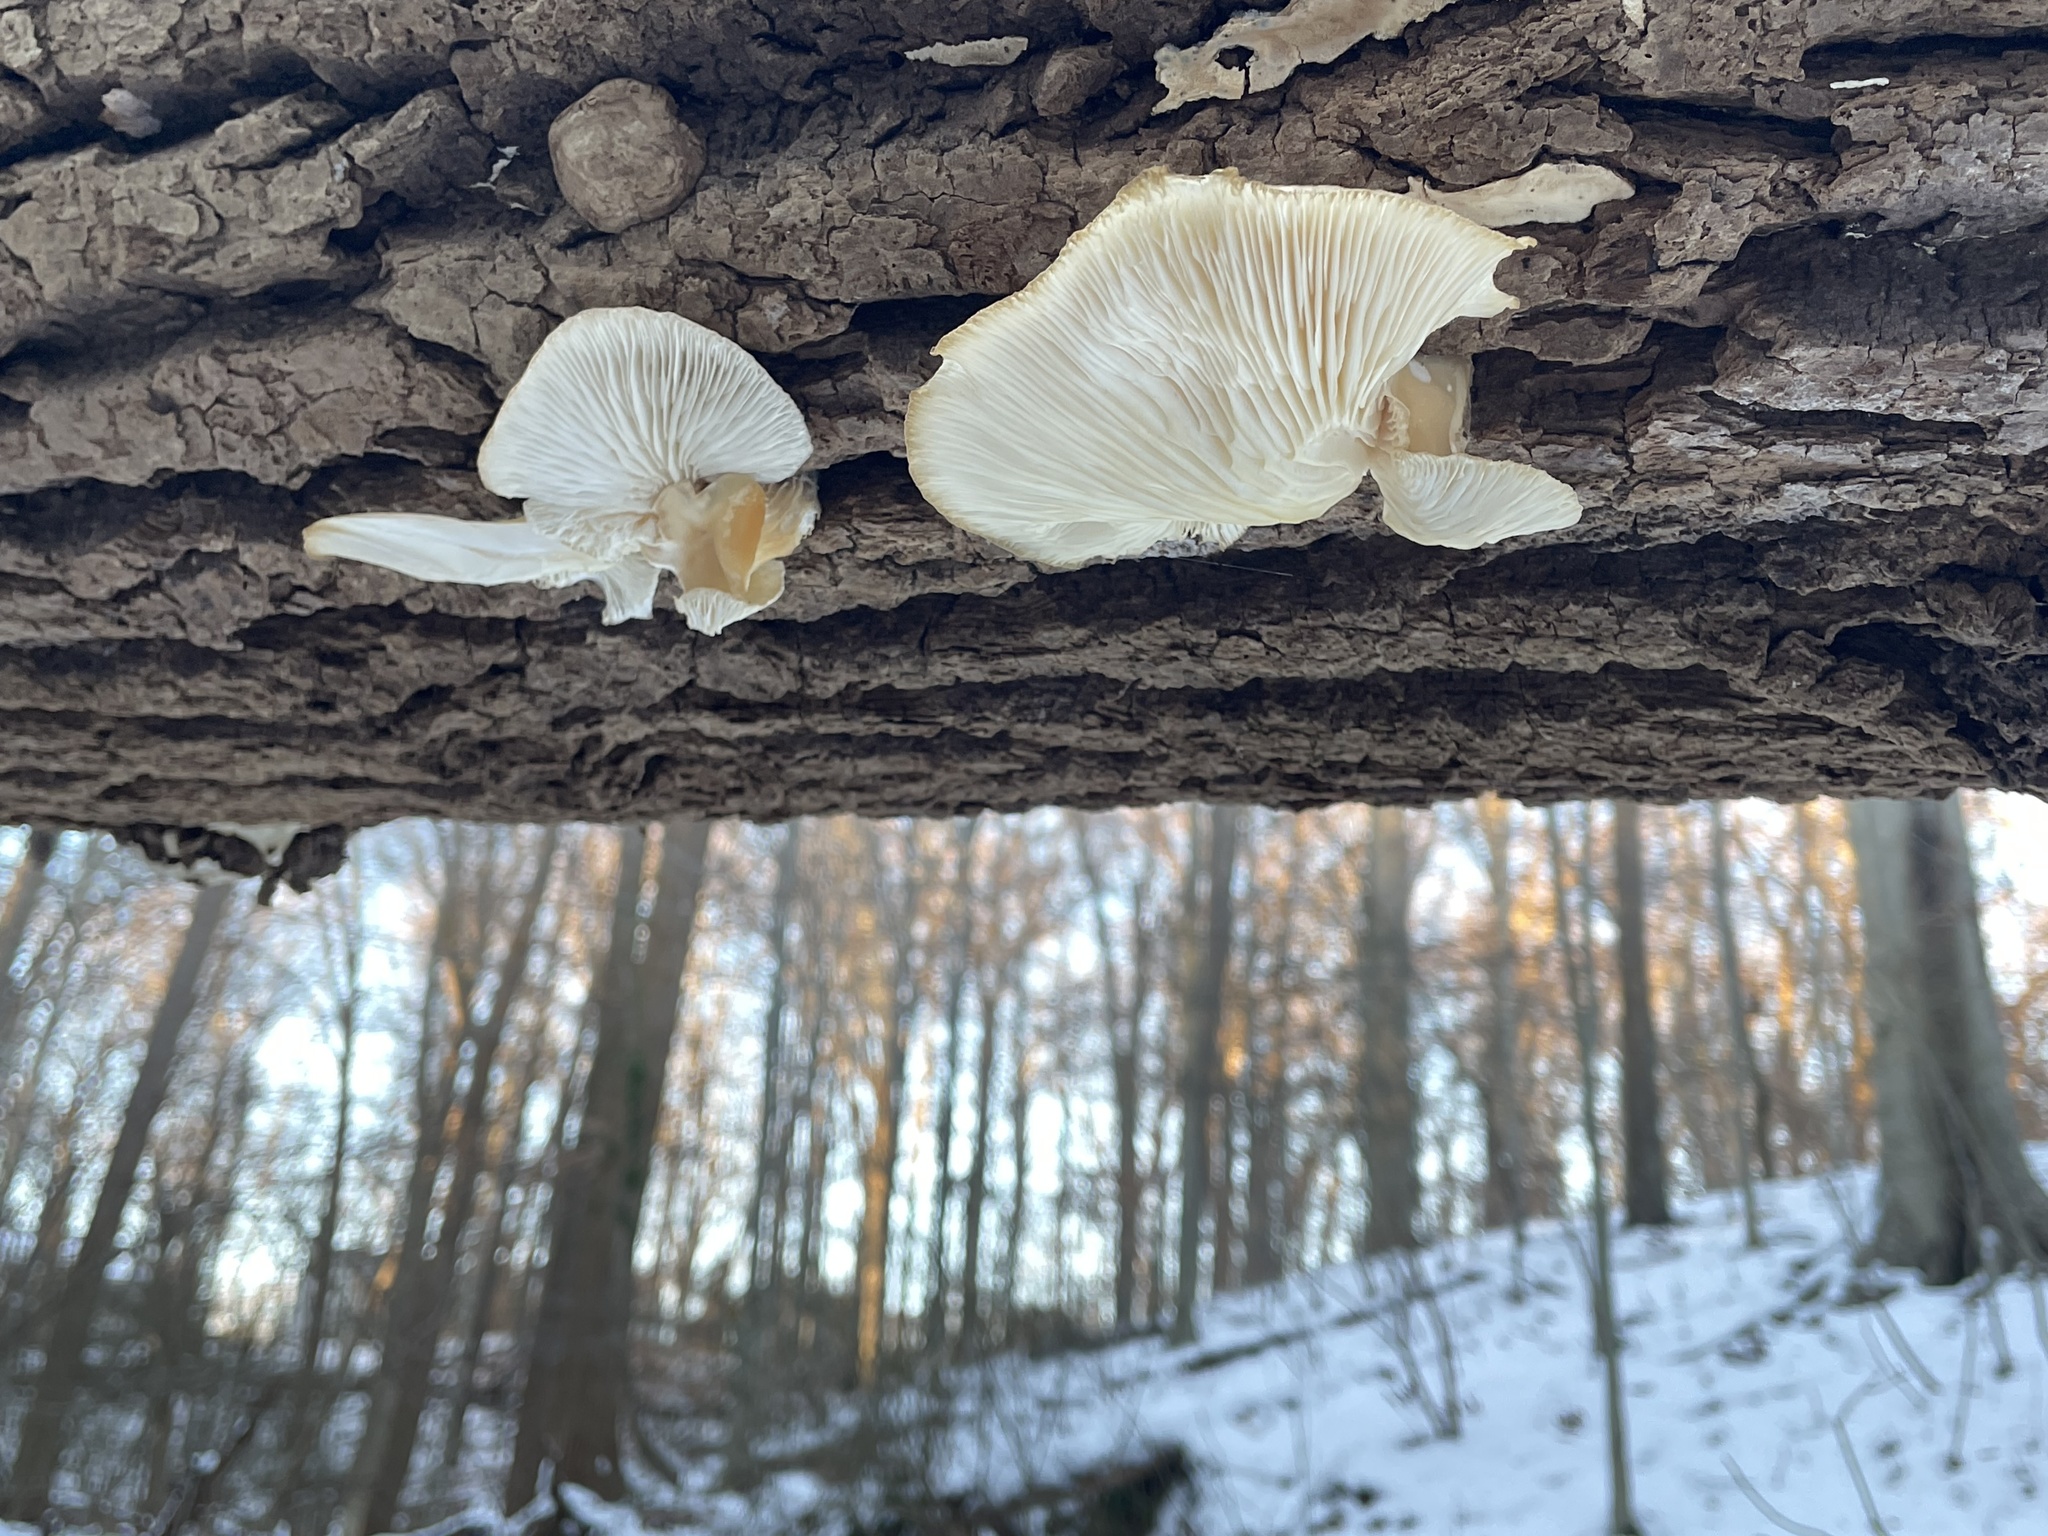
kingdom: Fungi
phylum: Basidiomycota
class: Agaricomycetes
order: Agaricales
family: Pleurotaceae
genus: Pleurotus
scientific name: Pleurotus ostreatus
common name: Oyster mushroom
